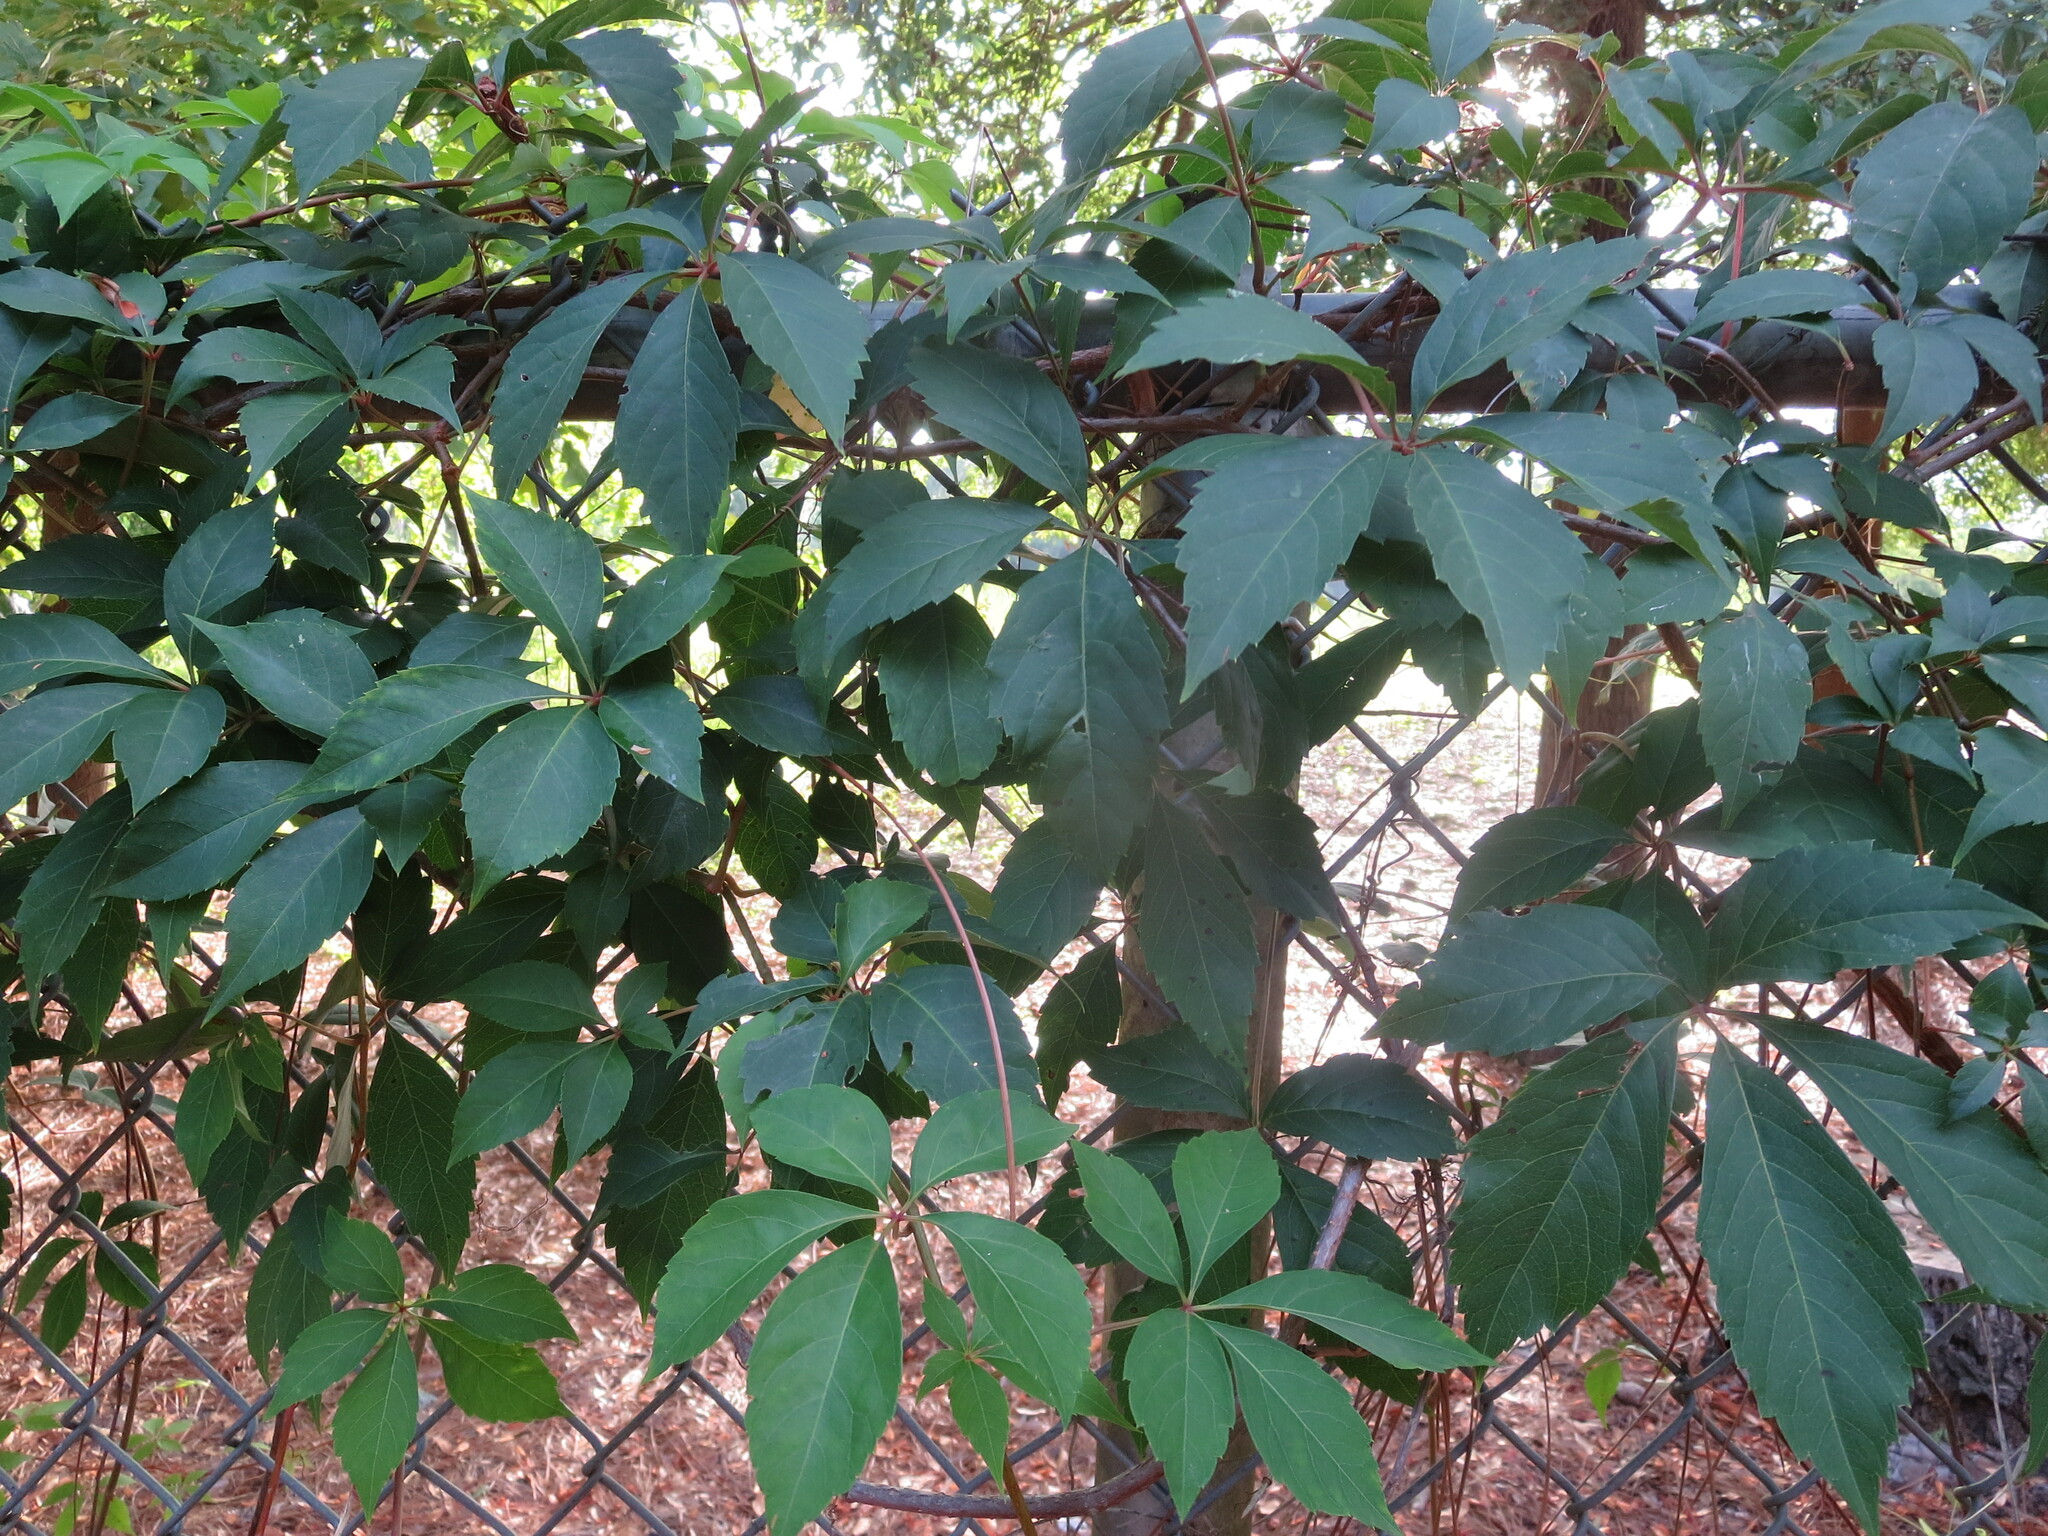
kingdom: Plantae
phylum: Tracheophyta
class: Magnoliopsida
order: Vitales
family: Vitaceae
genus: Parthenocissus
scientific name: Parthenocissus quinquefolia
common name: Virginia-creeper
